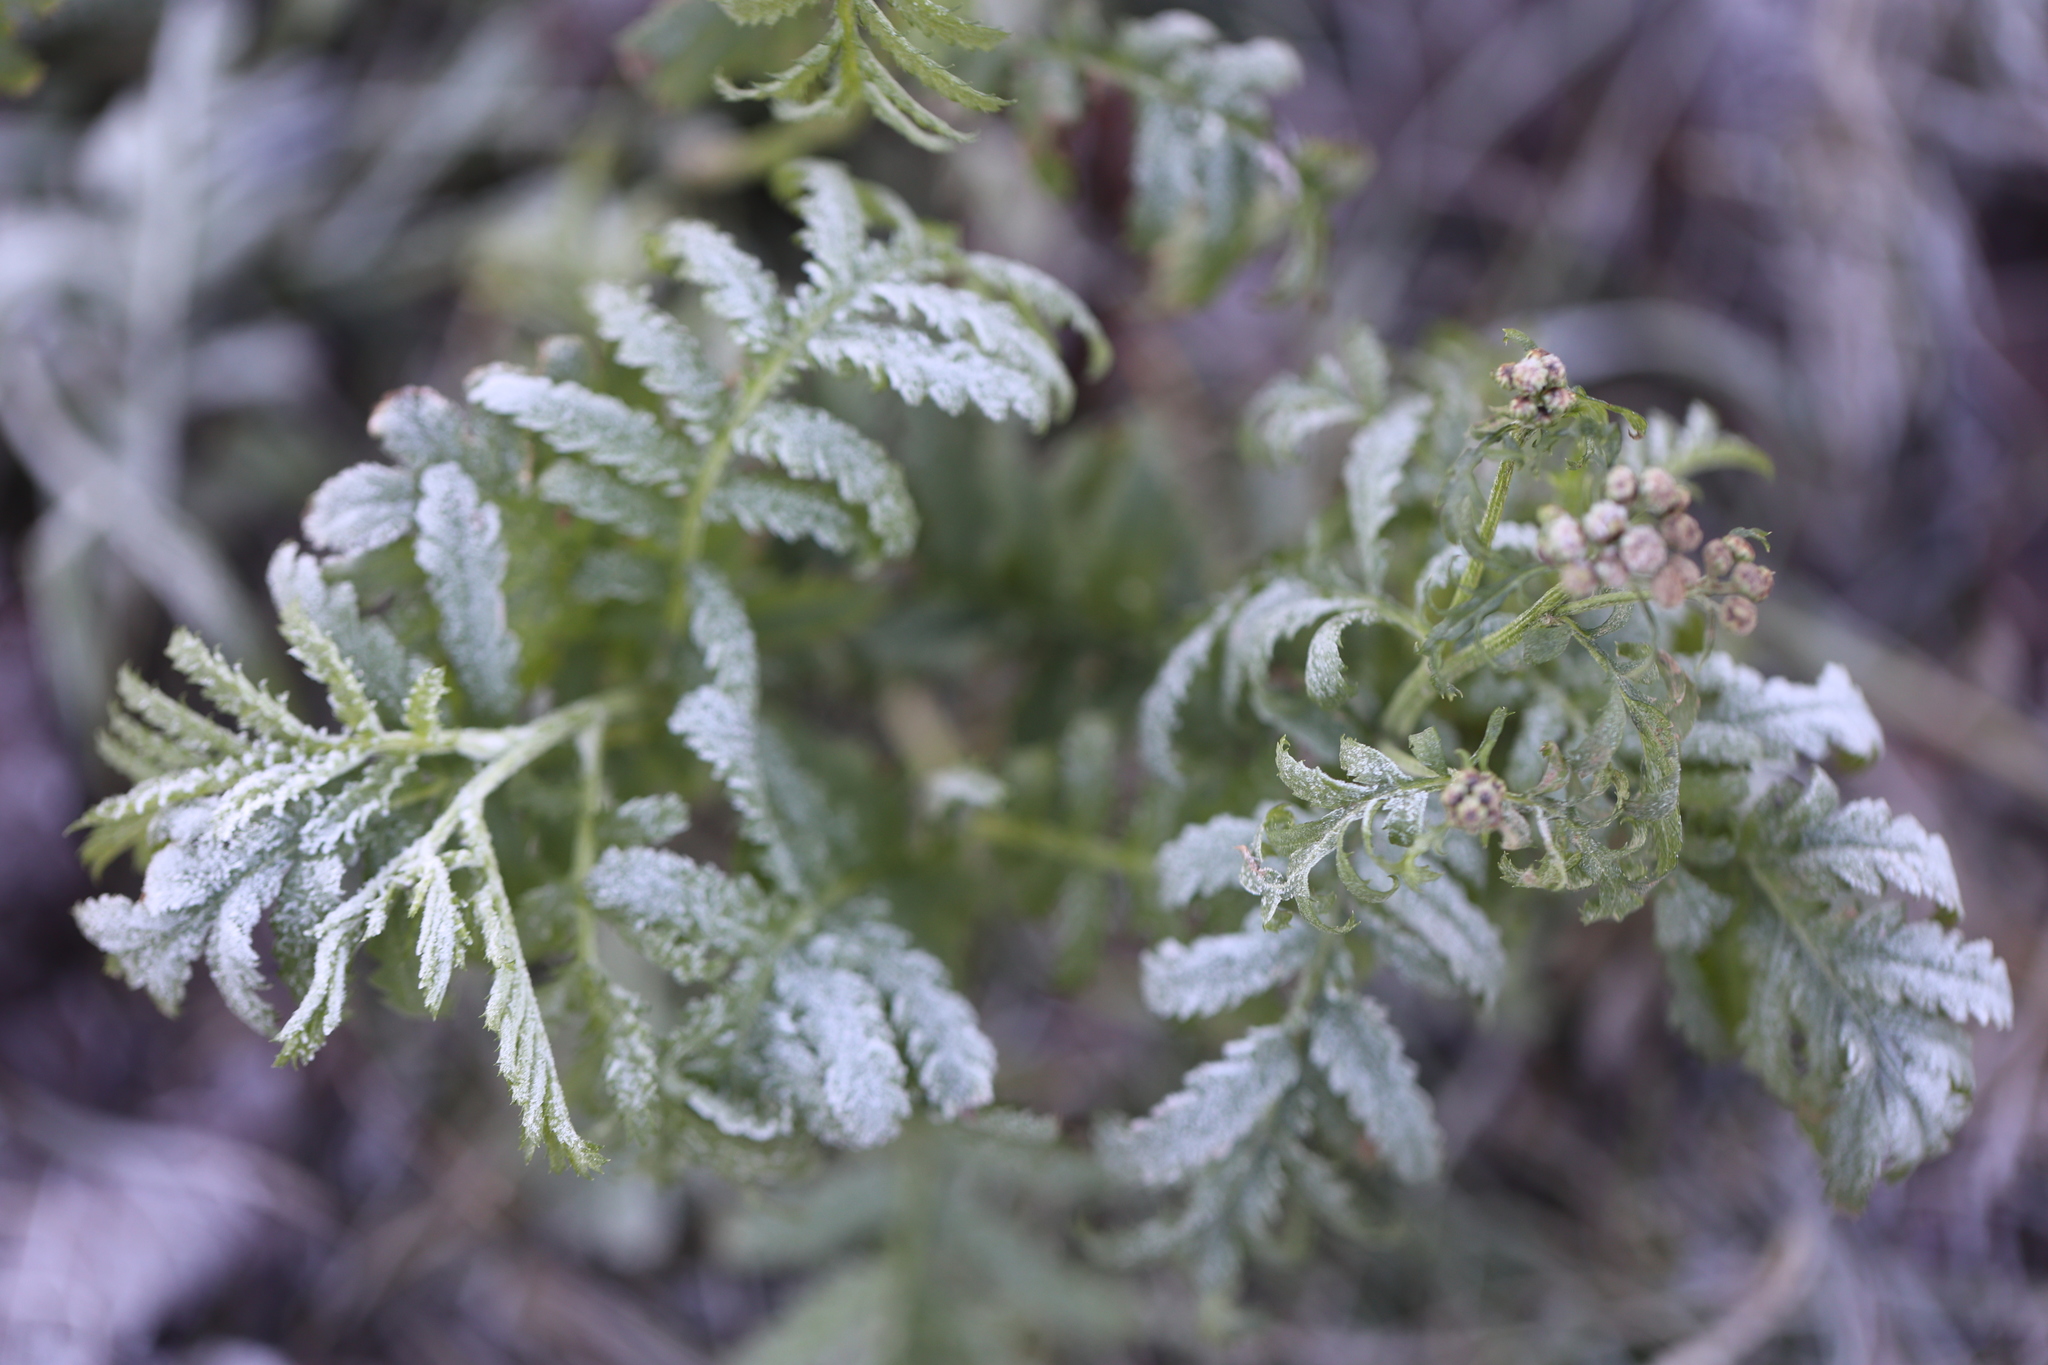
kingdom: Plantae
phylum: Tracheophyta
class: Magnoliopsida
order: Asterales
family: Asteraceae
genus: Tanacetum
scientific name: Tanacetum vulgare
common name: Common tansy
